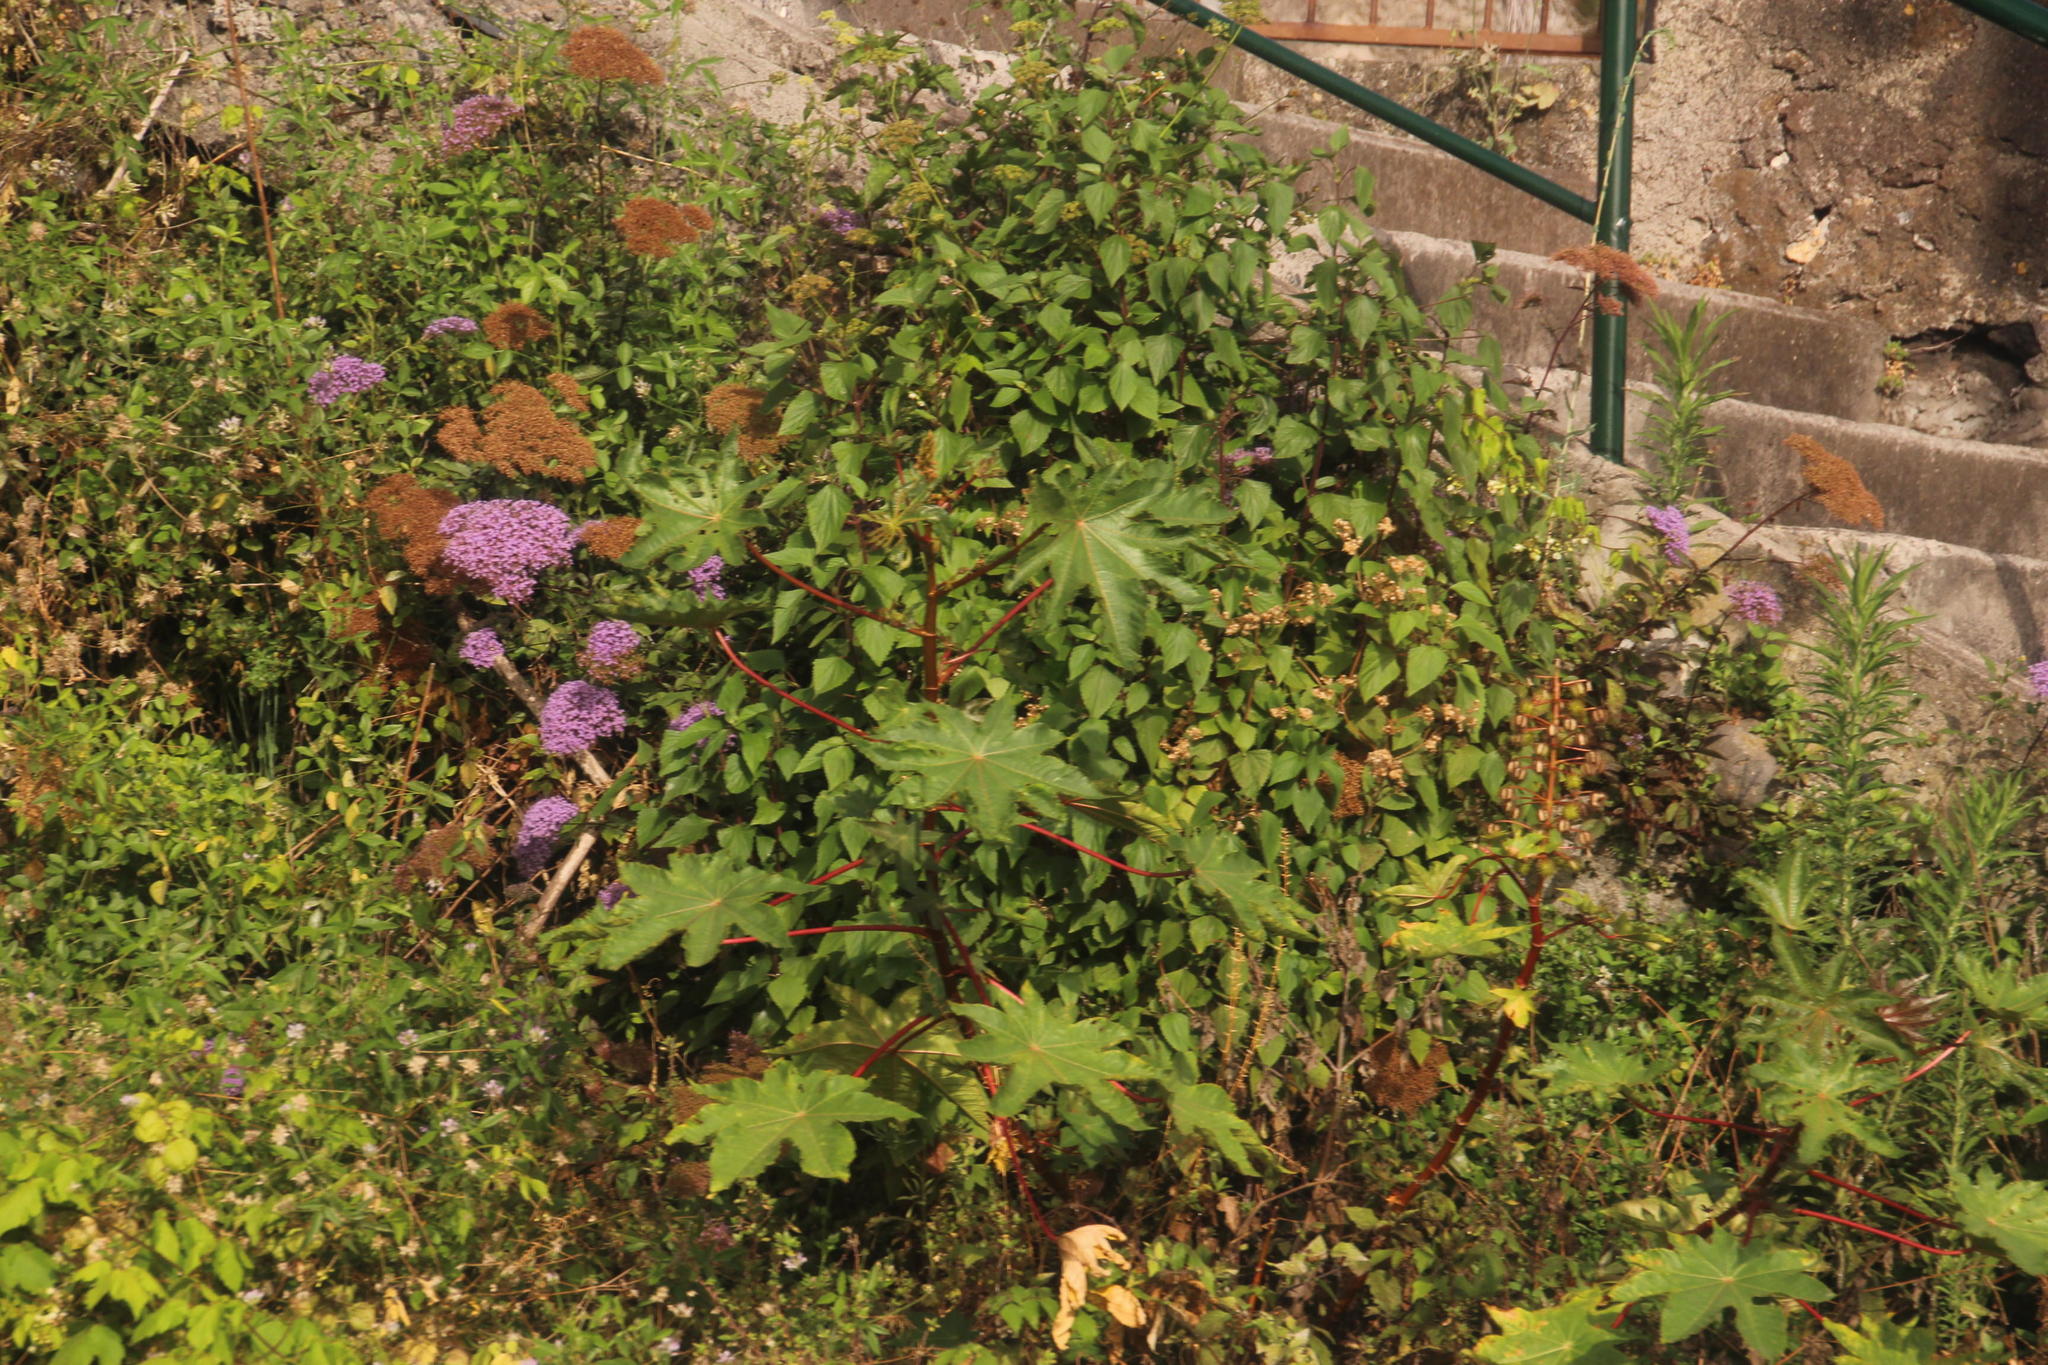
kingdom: Plantae
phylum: Tracheophyta
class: Magnoliopsida
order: Malpighiales
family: Euphorbiaceae
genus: Ricinus
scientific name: Ricinus communis
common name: Castor-oil-plant
